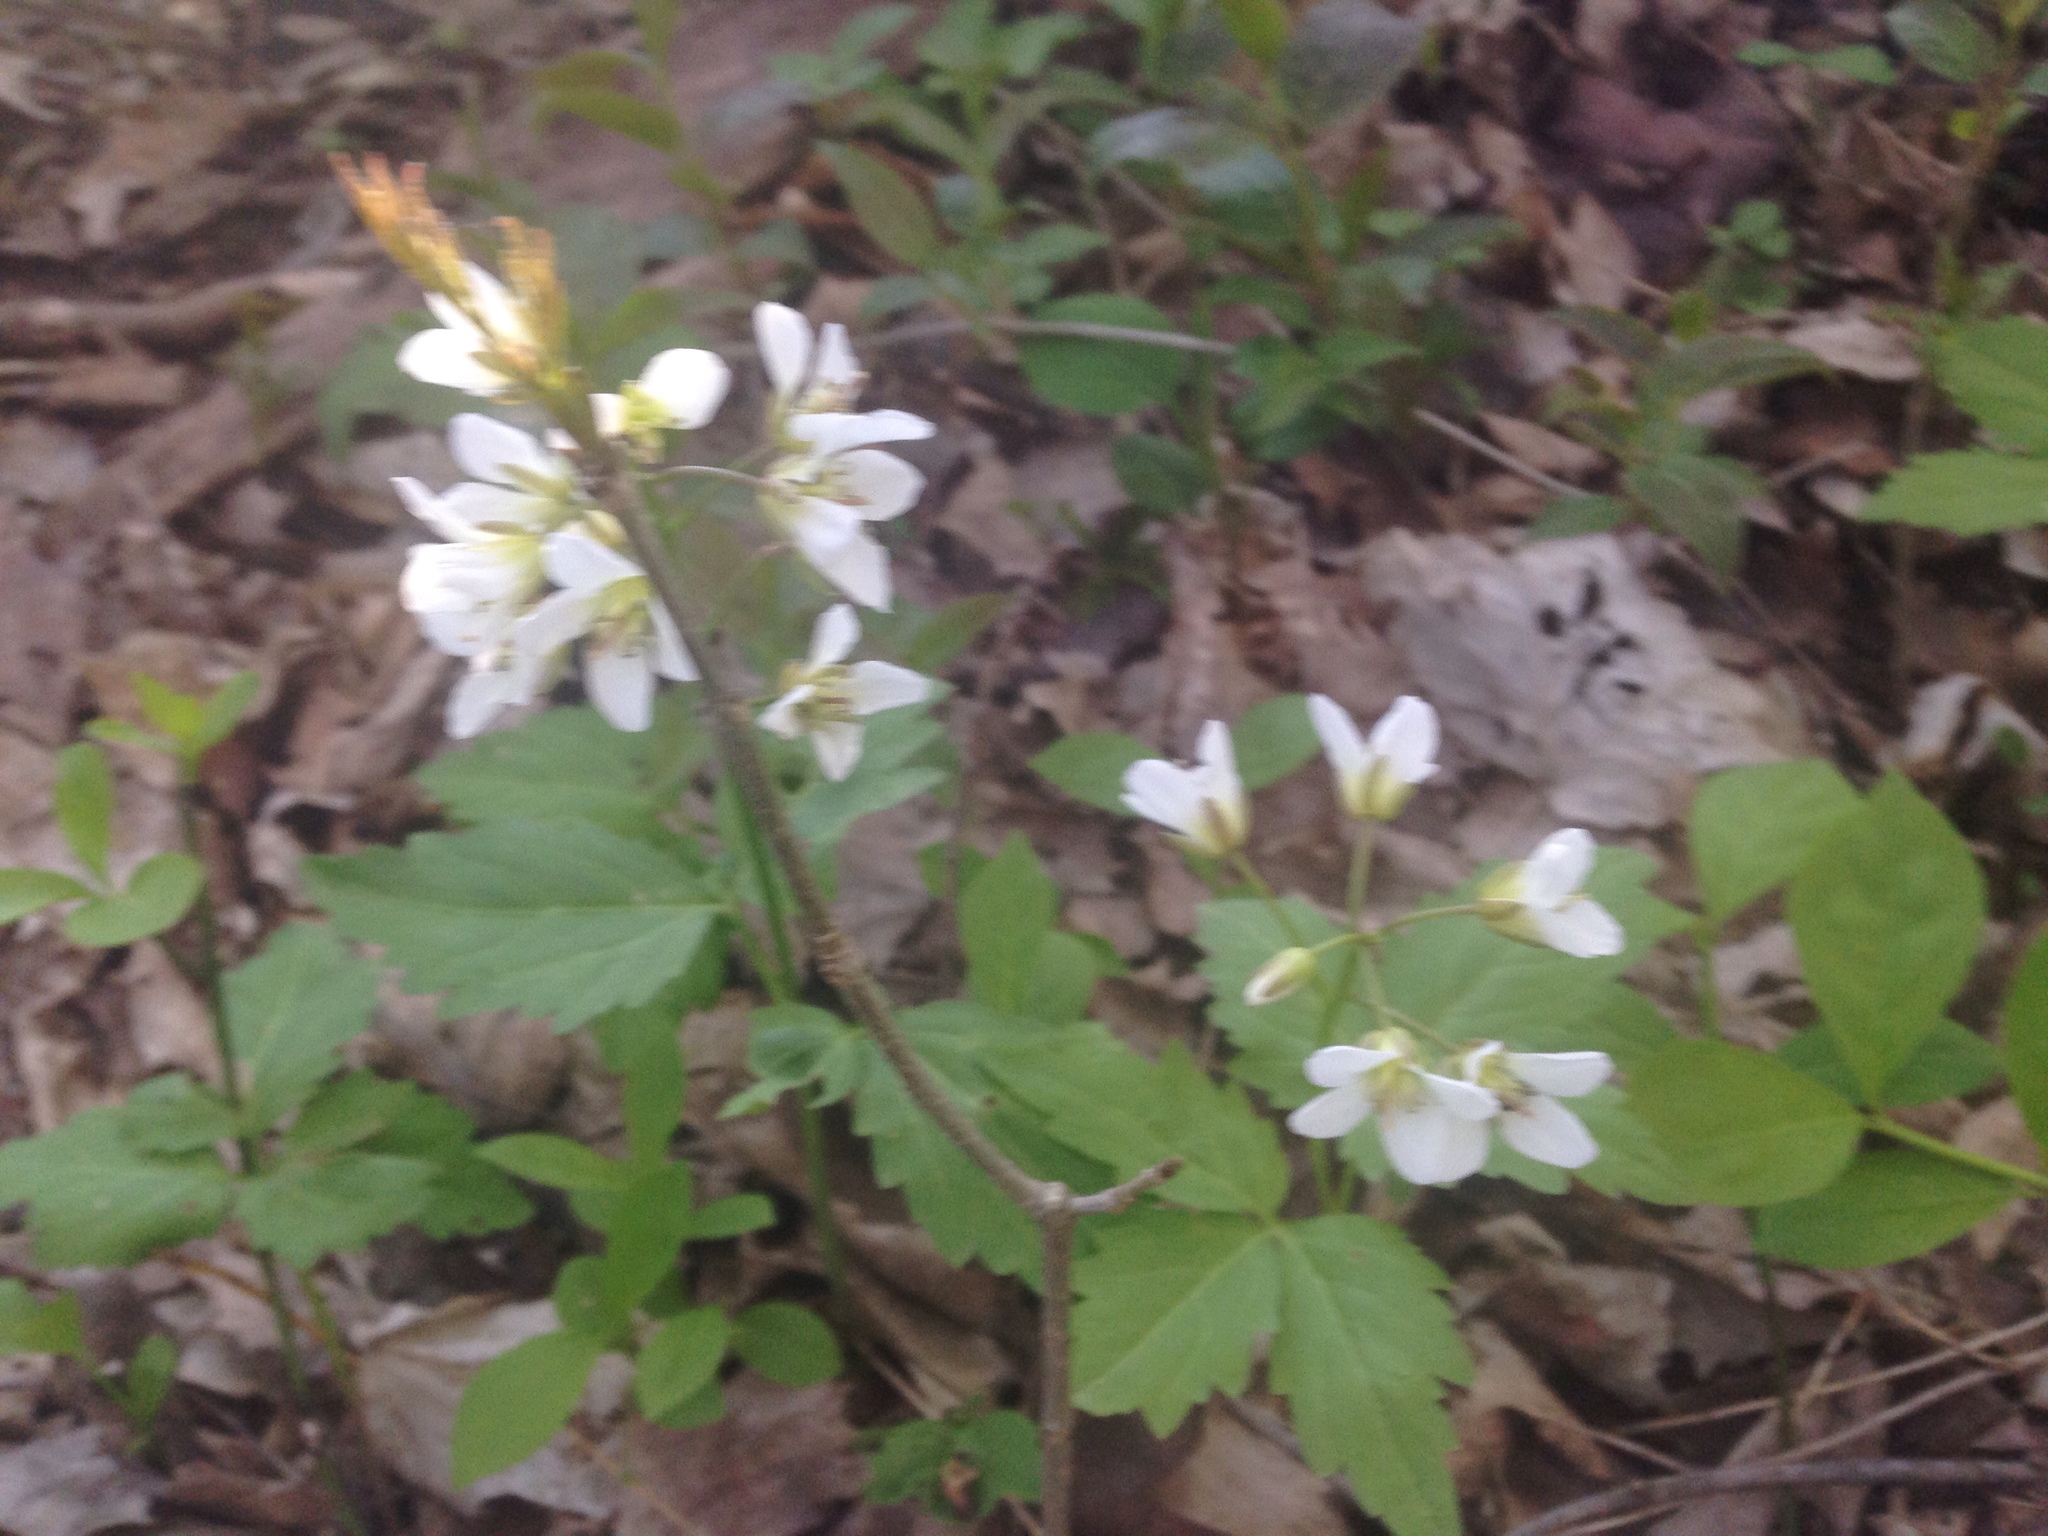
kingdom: Plantae
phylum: Tracheophyta
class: Magnoliopsida
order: Brassicales
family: Brassicaceae
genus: Cardamine
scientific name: Cardamine diphylla
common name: Broad-leaved toothwort
